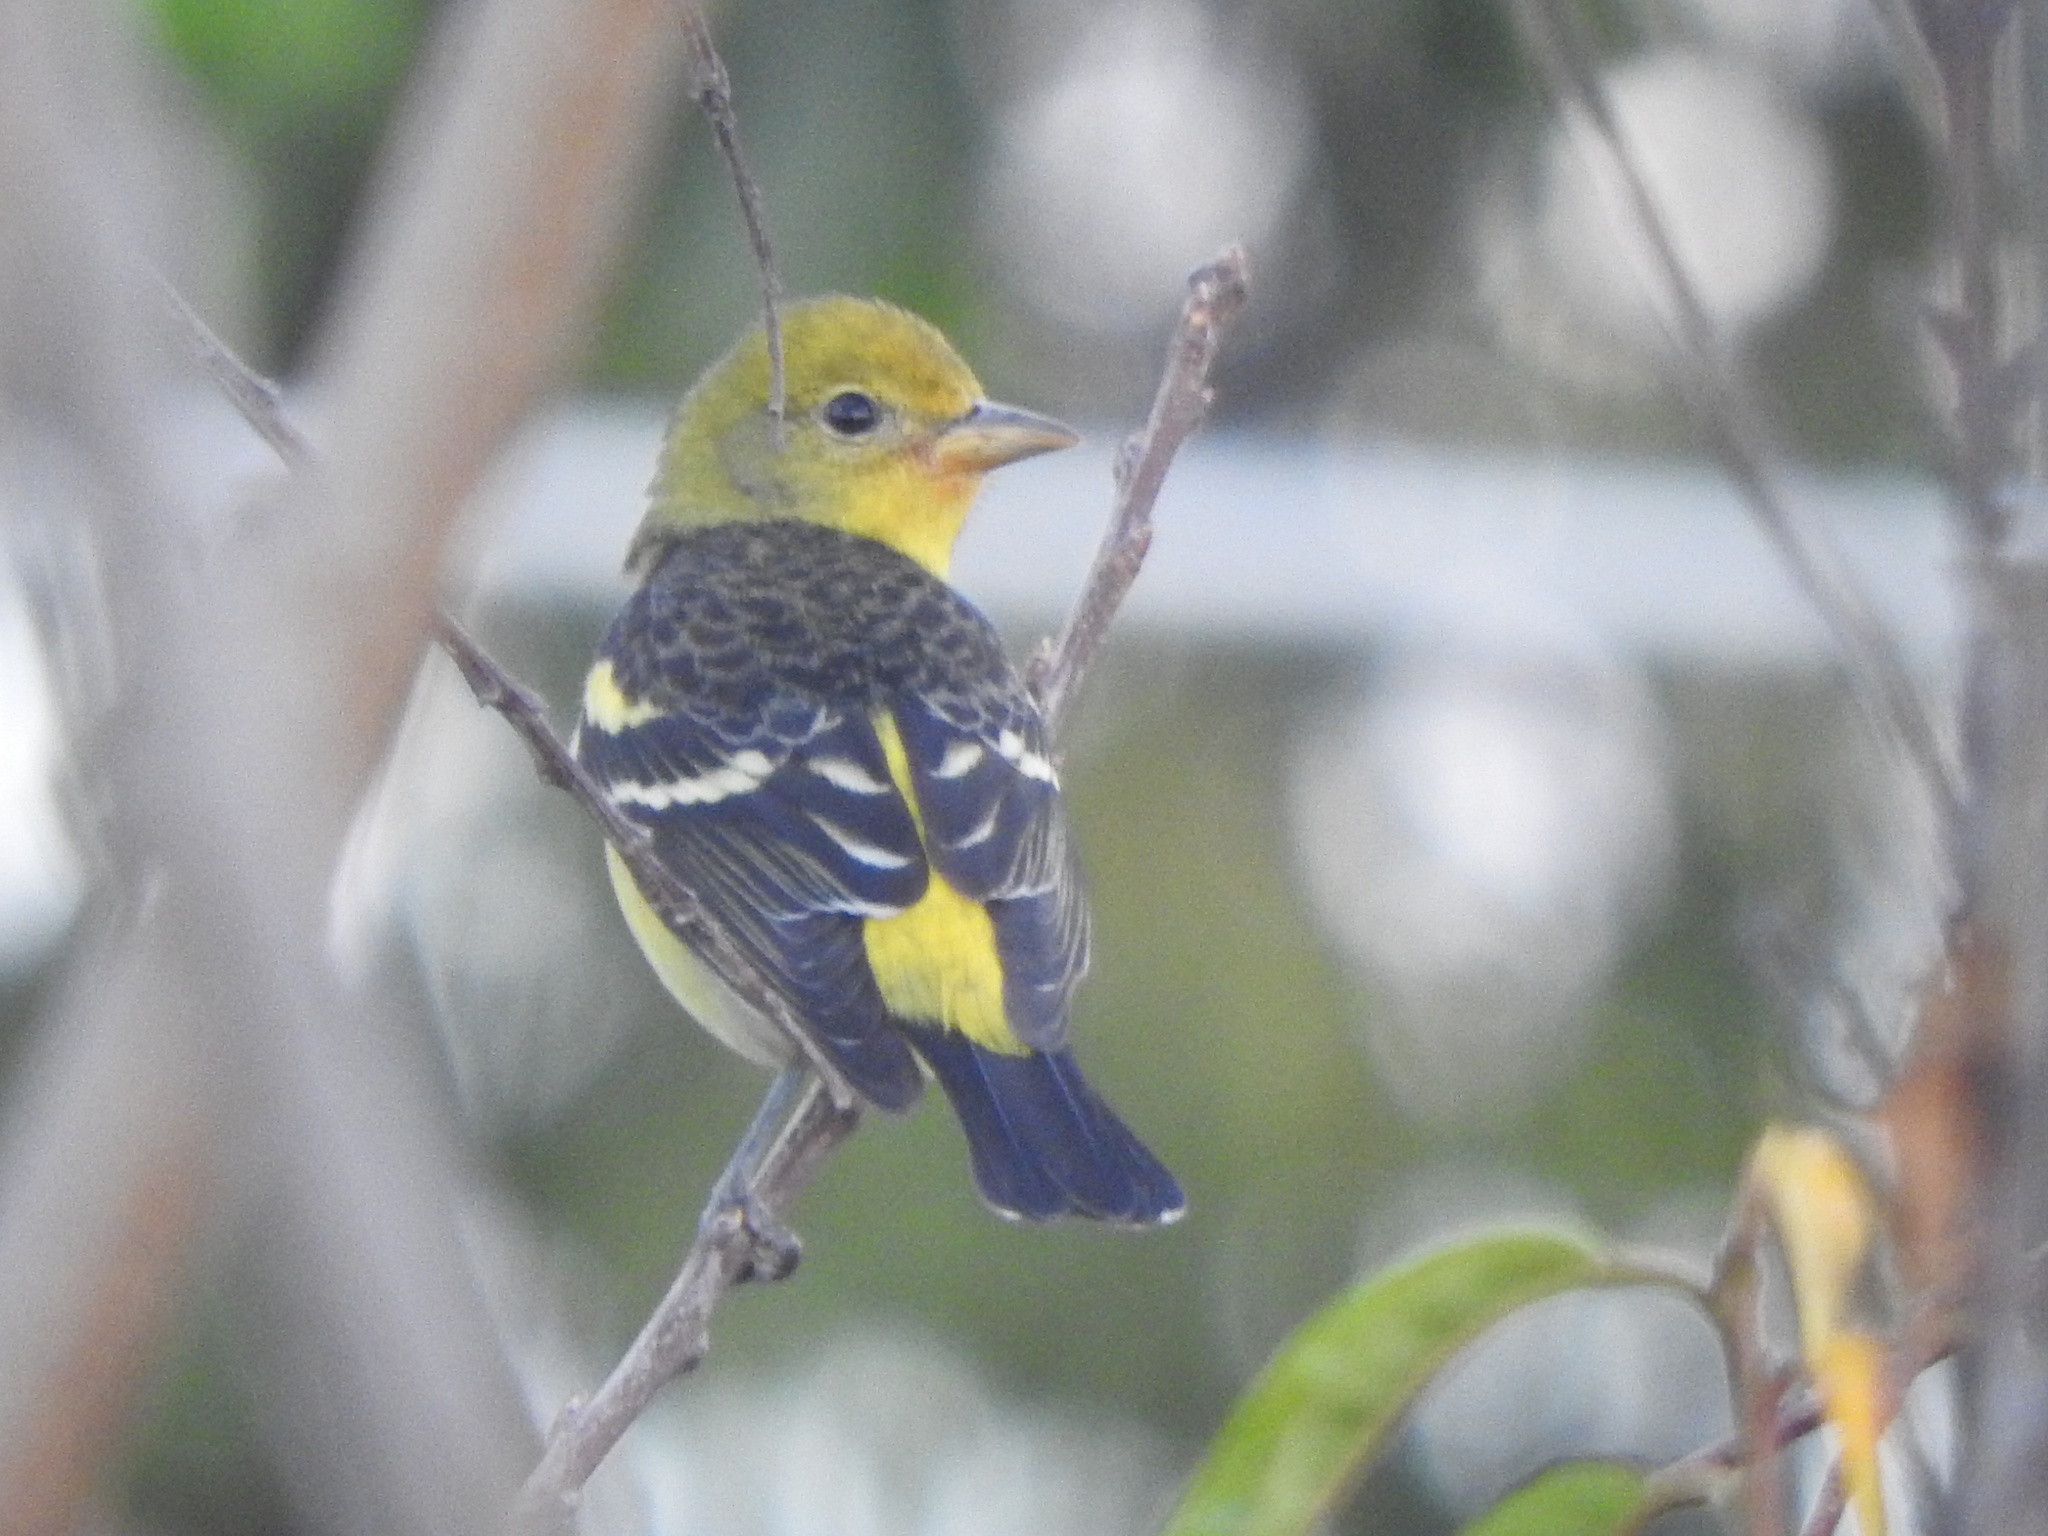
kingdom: Animalia
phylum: Chordata
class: Aves
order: Passeriformes
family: Cardinalidae
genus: Piranga
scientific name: Piranga ludoviciana
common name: Western tanager
